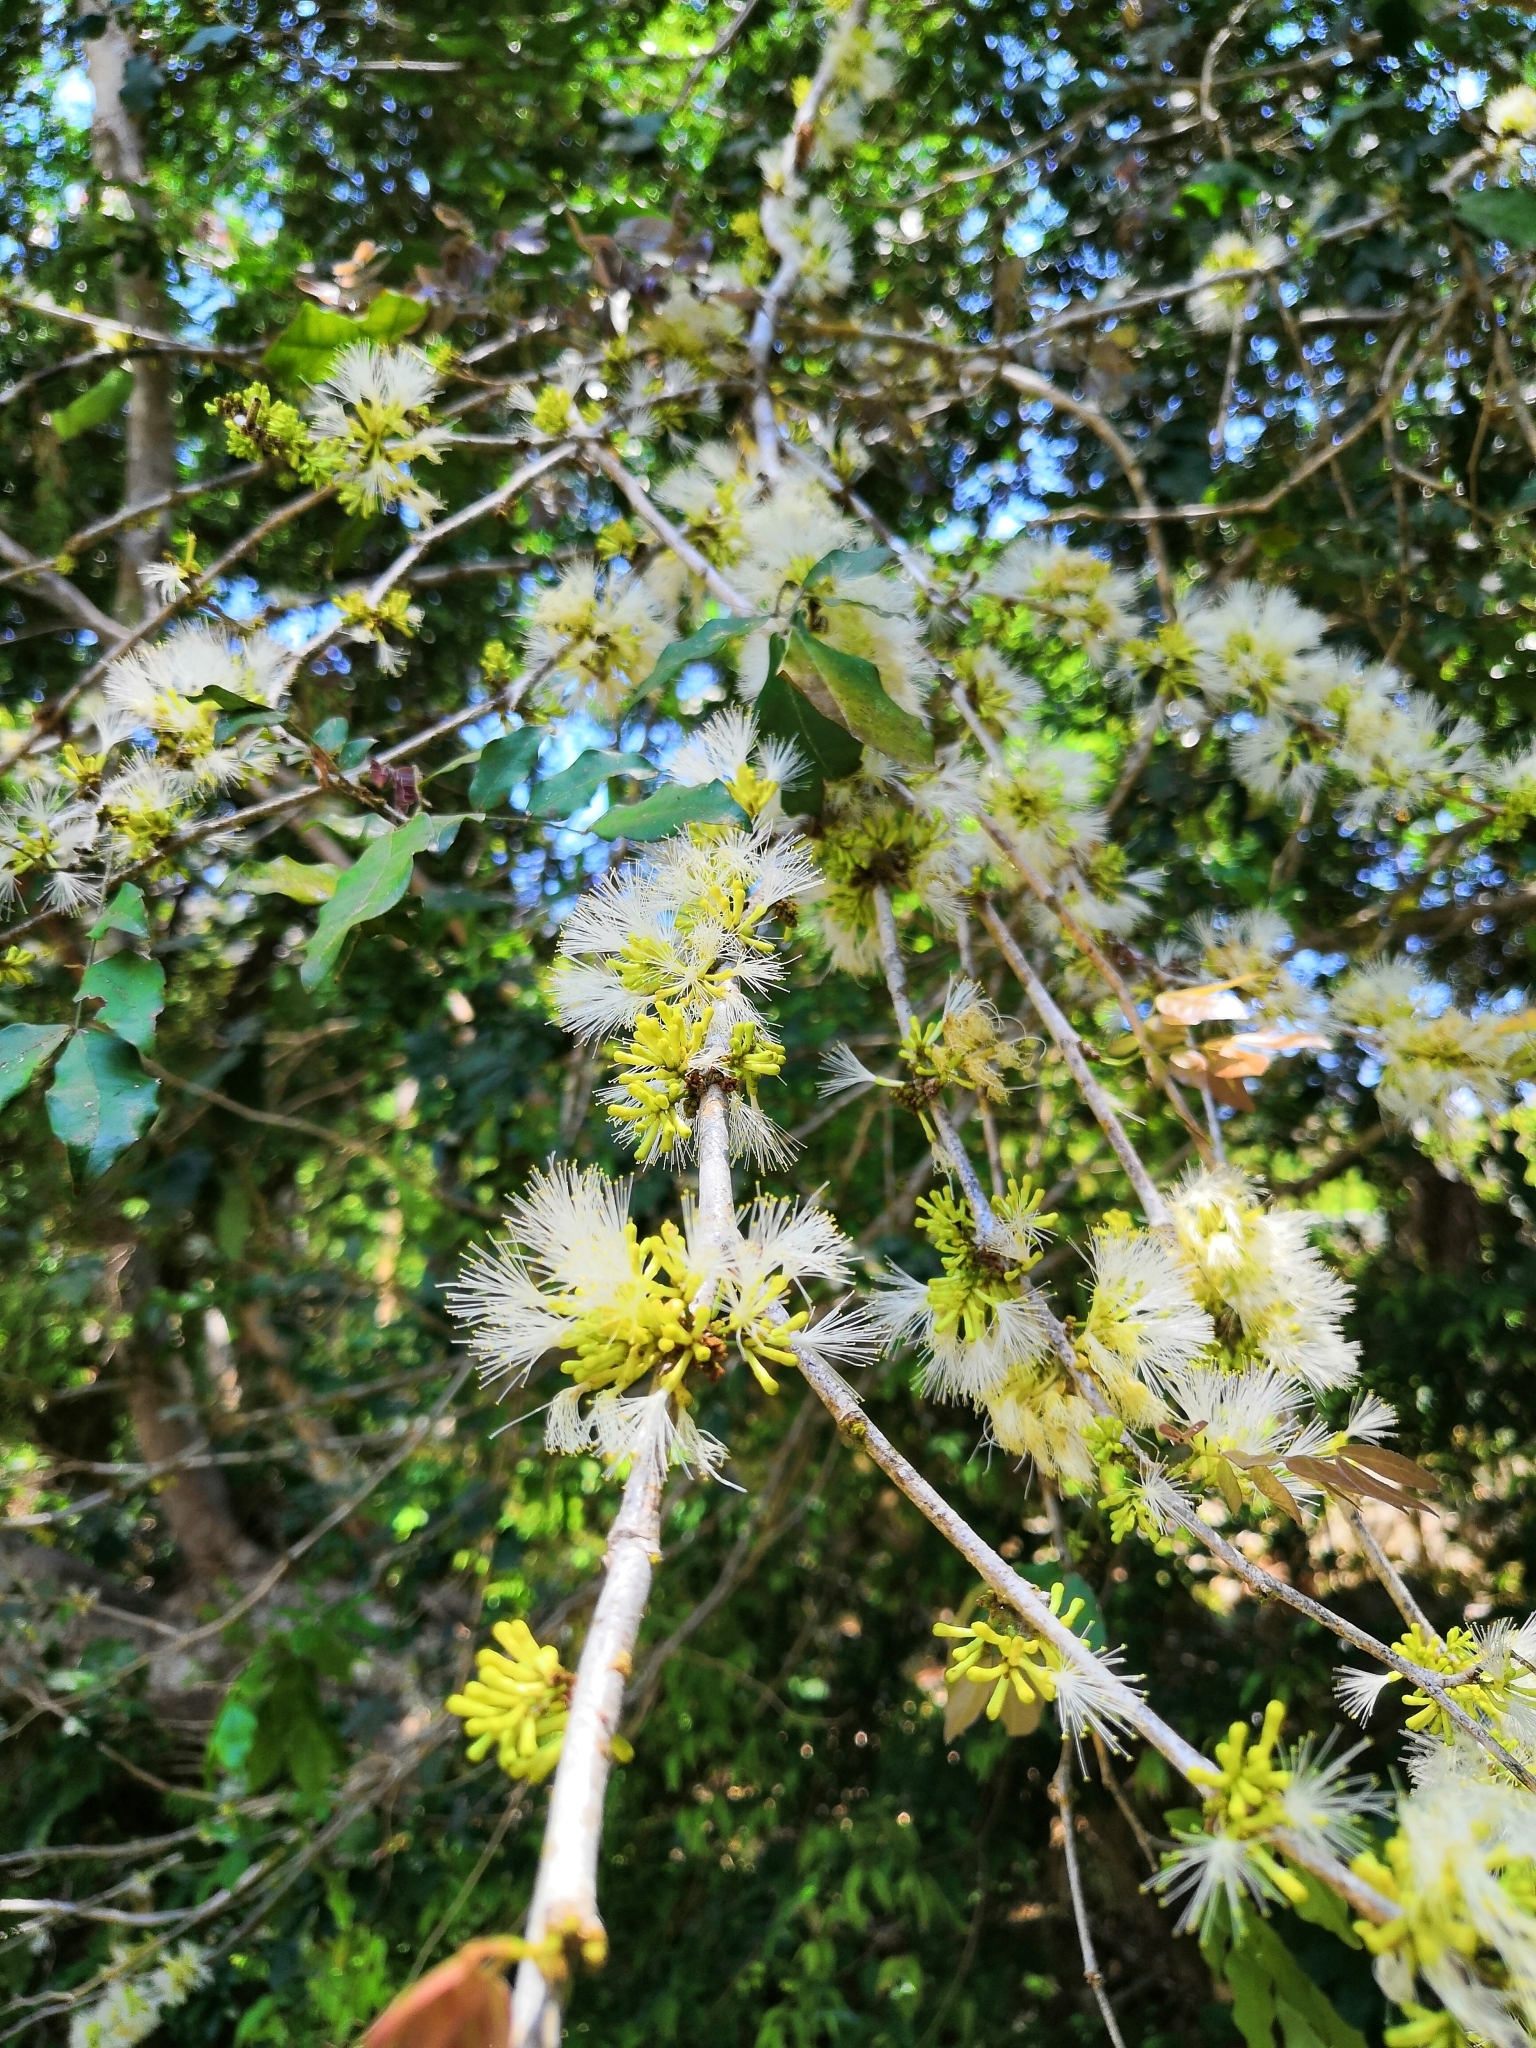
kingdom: Plantae
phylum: Tracheophyta
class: Magnoliopsida
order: Fabales
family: Fabaceae
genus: Zygia
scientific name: Zygia conzattii
